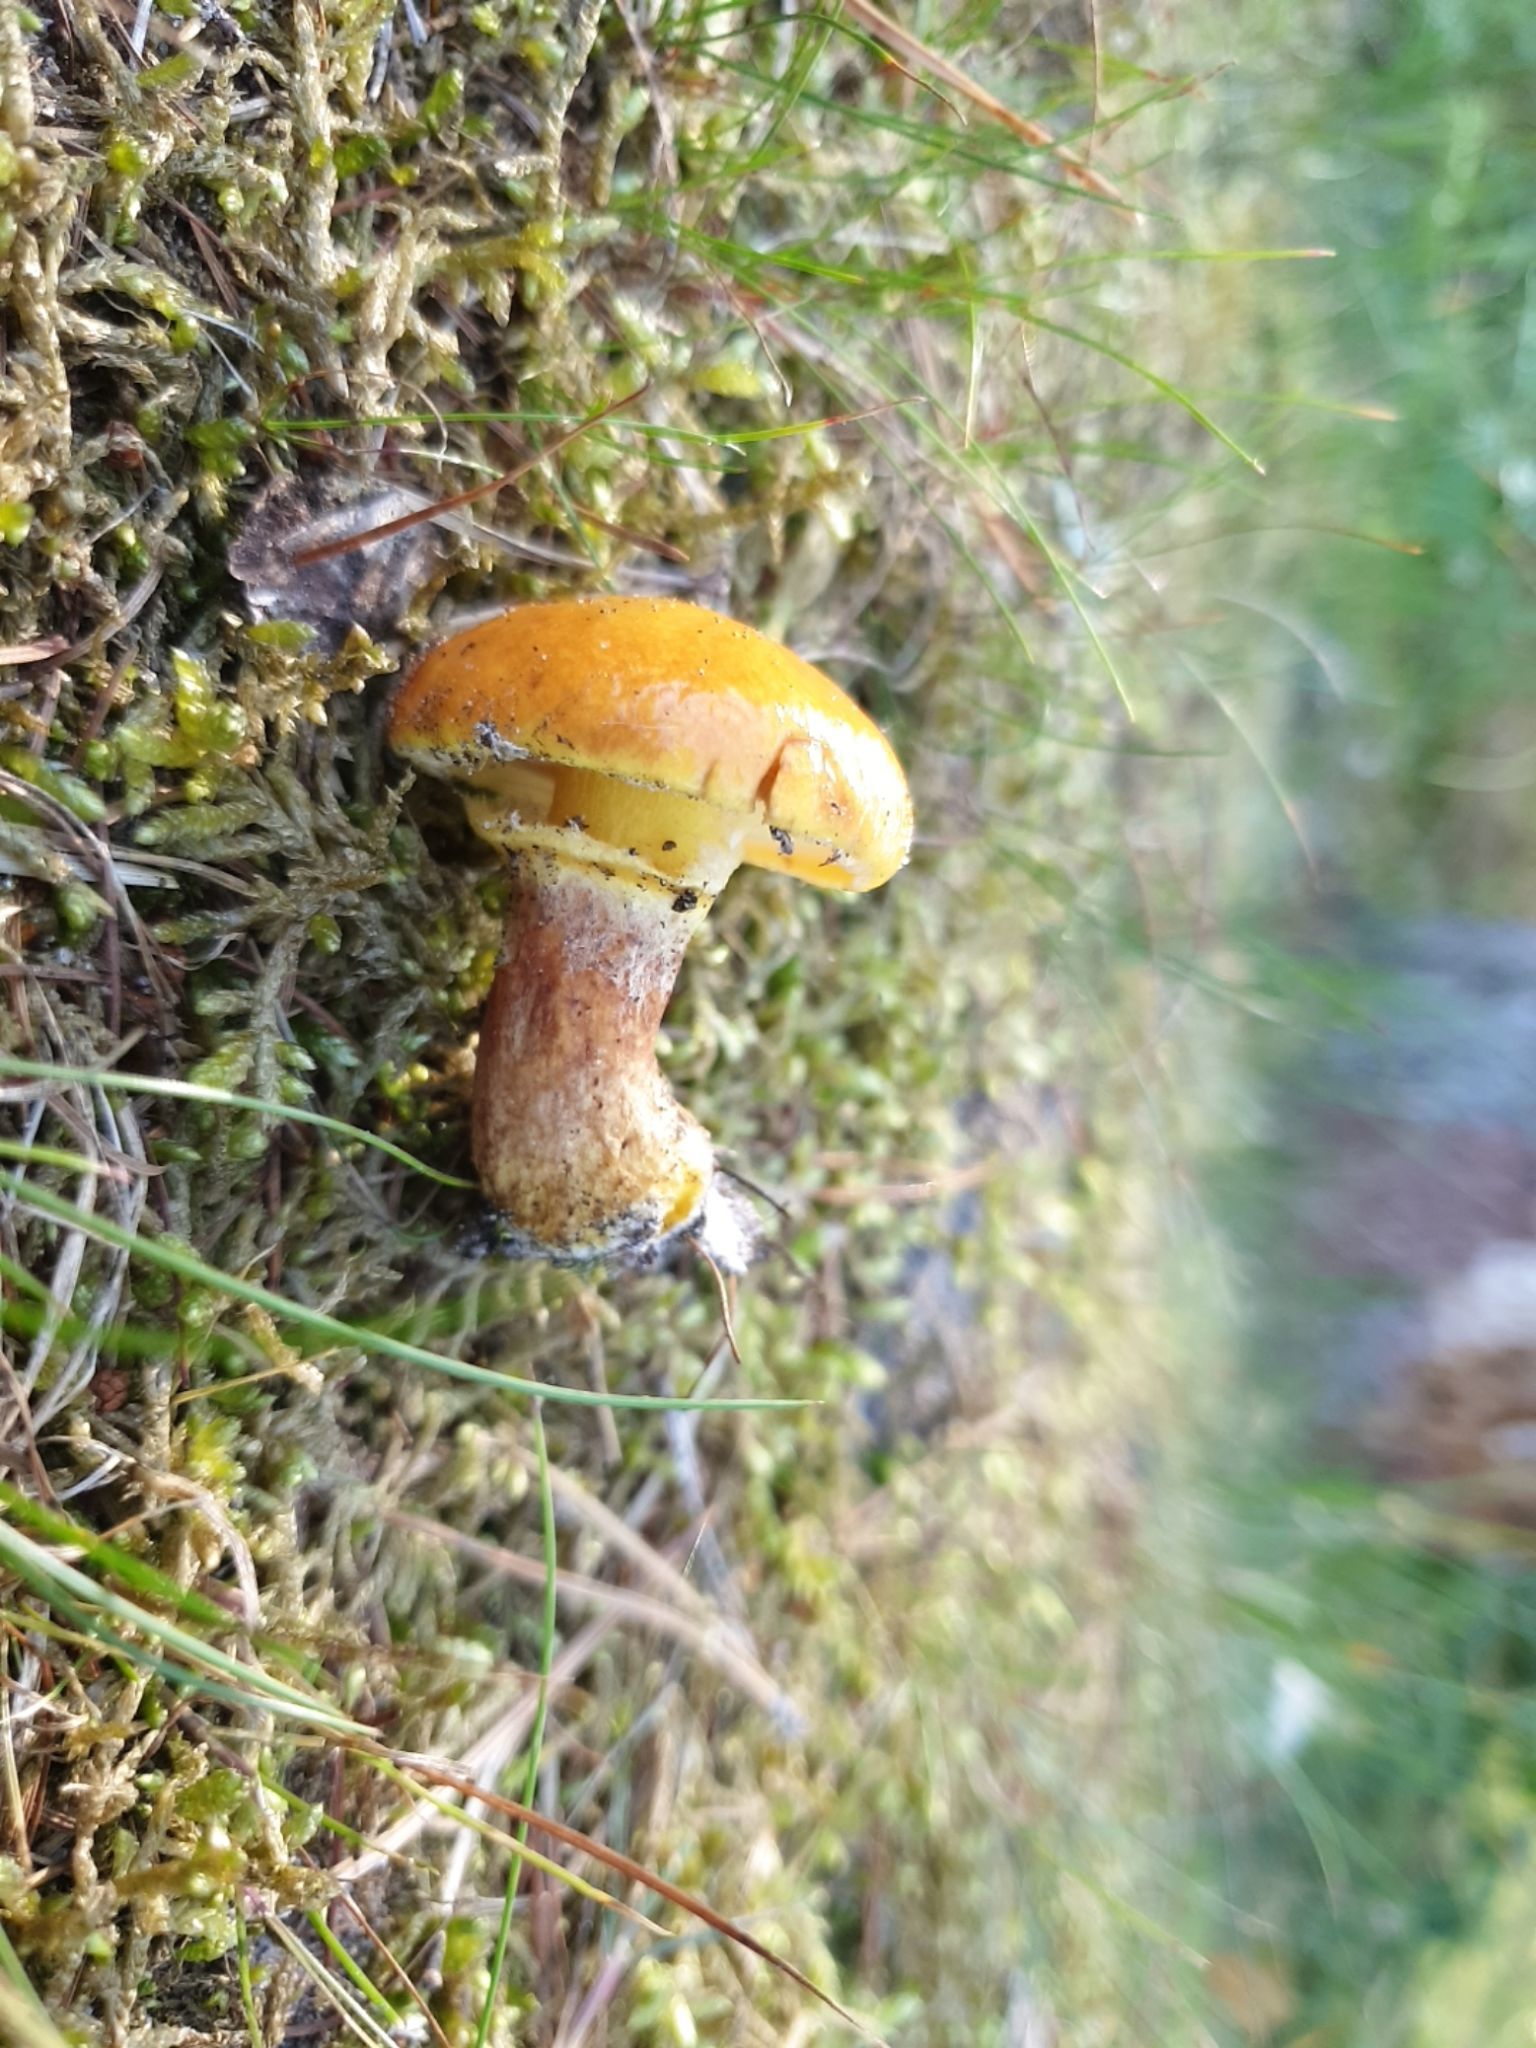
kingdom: Fungi
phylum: Basidiomycota
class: Agaricomycetes
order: Boletales
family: Suillaceae
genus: Suillus
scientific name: Suillus grevillei
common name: Larch bolete
